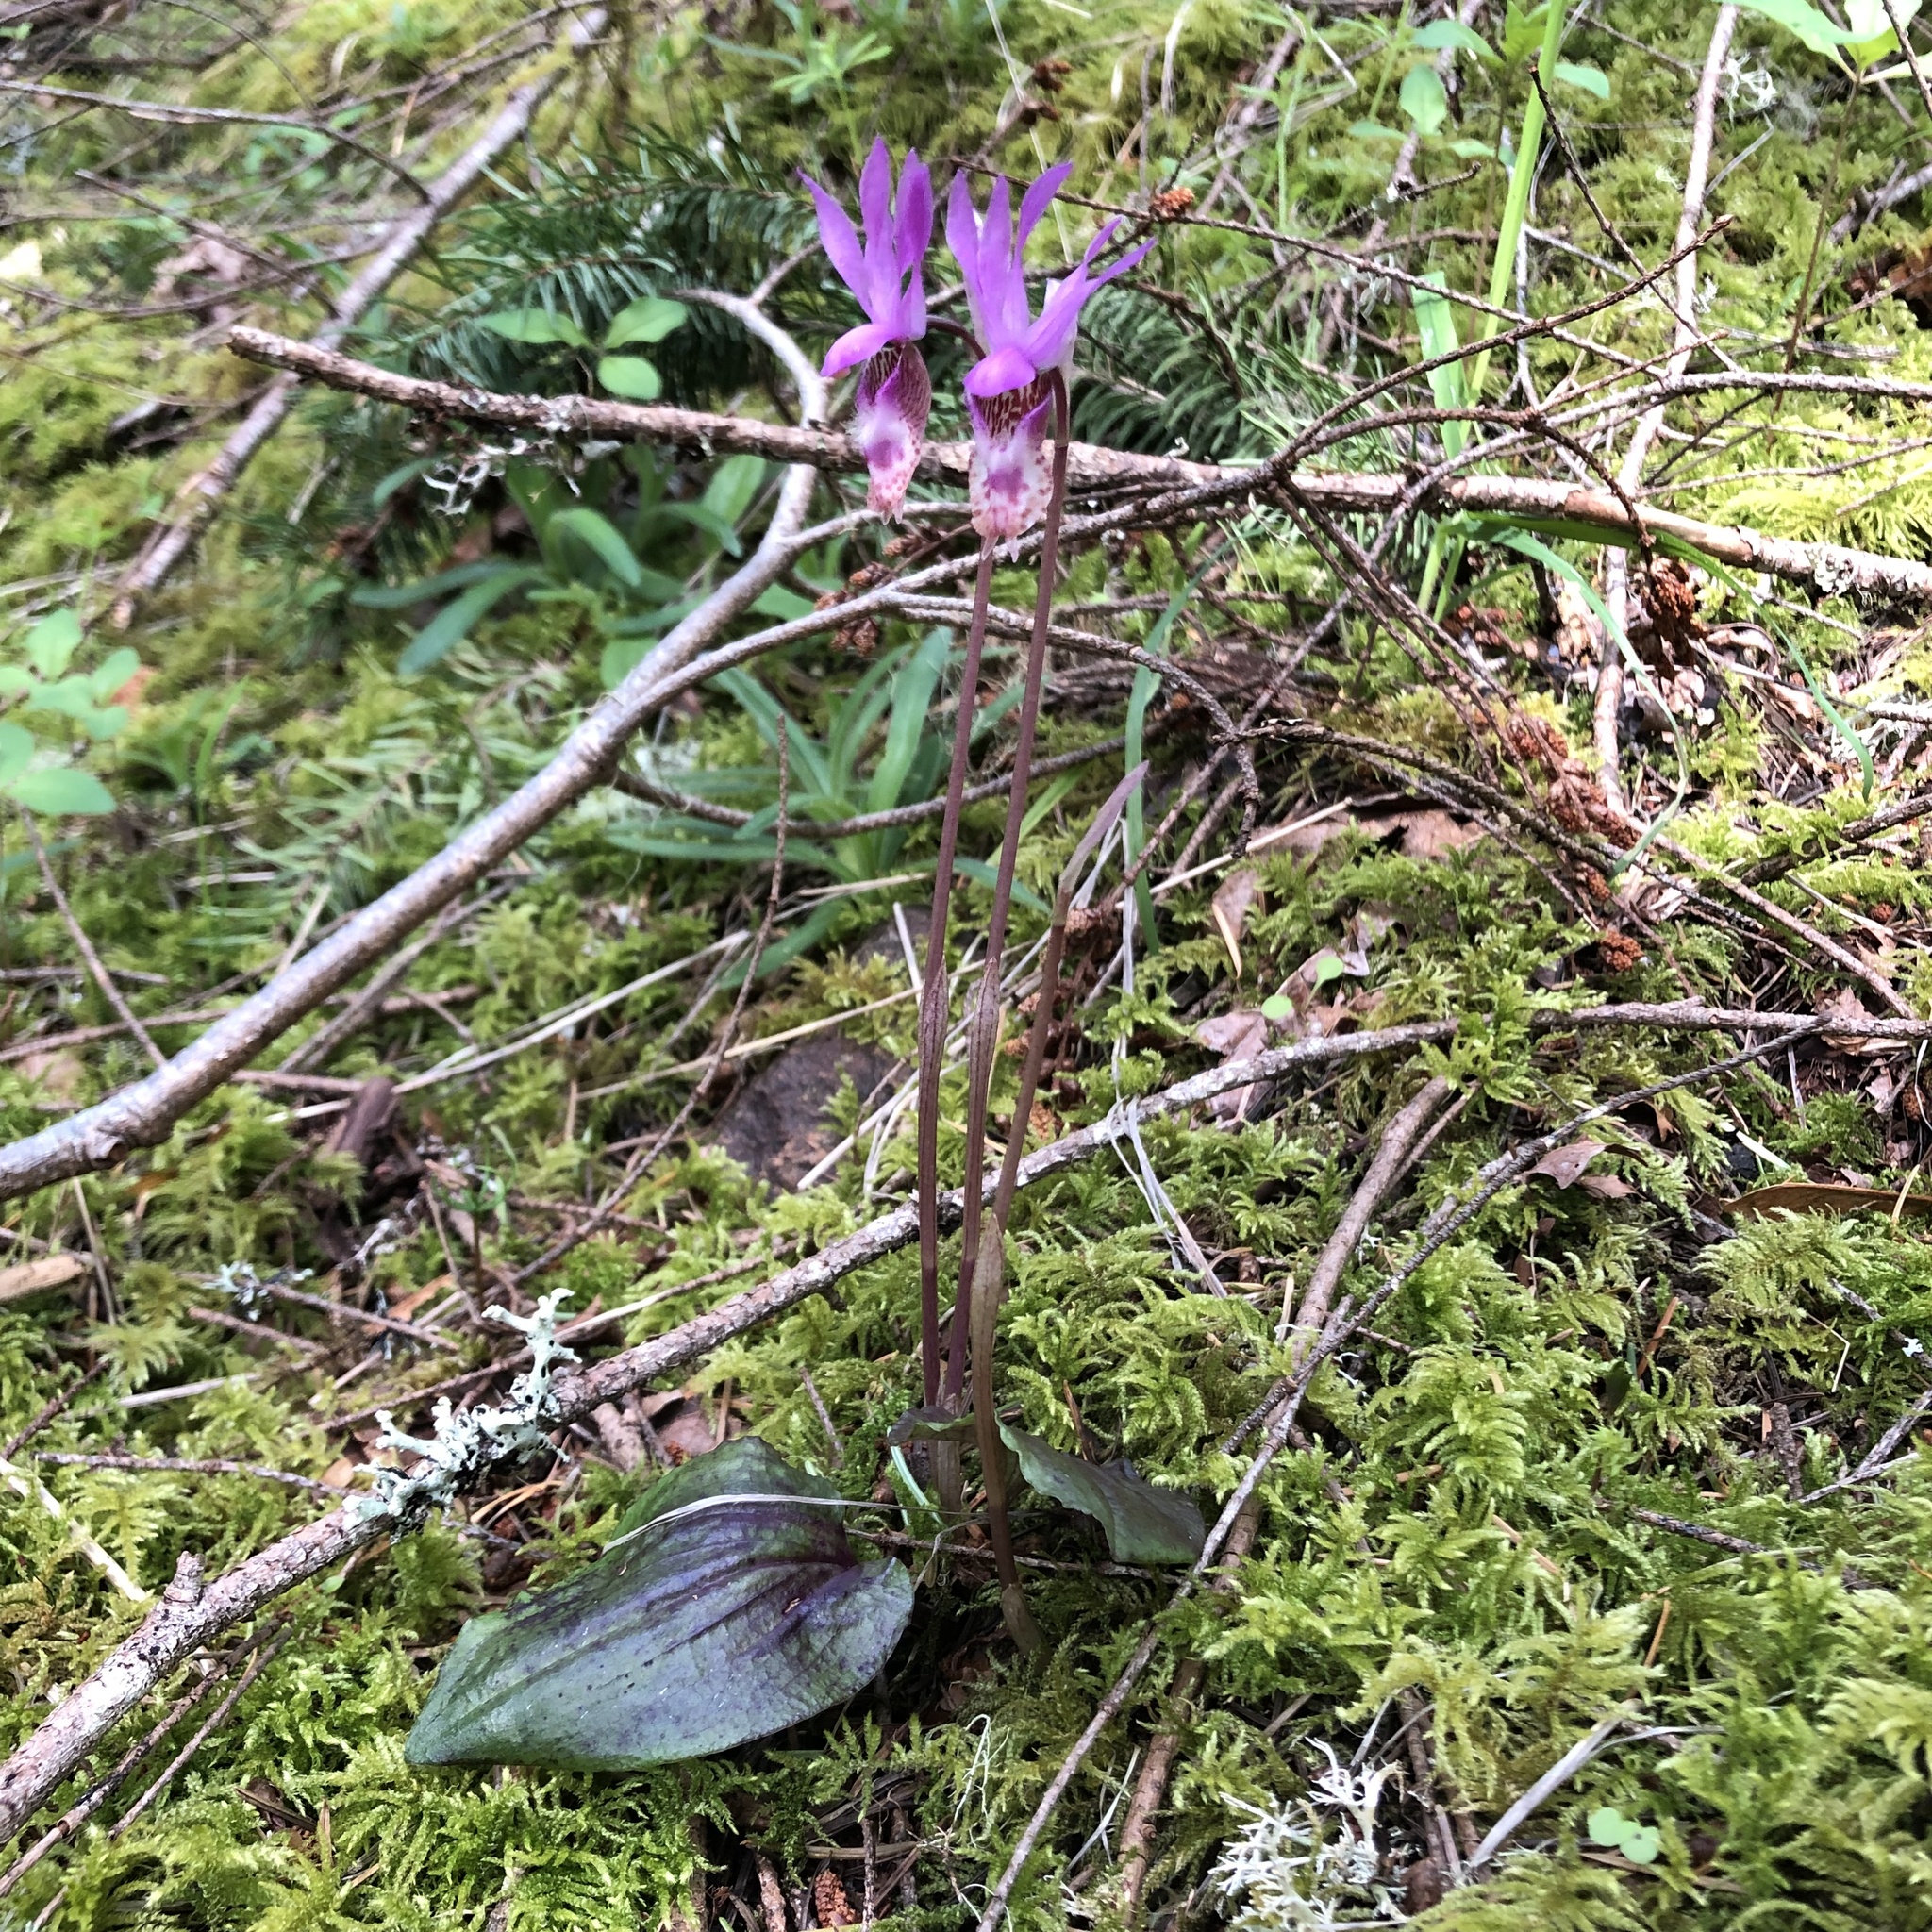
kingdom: Plantae
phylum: Tracheophyta
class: Liliopsida
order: Asparagales
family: Orchidaceae
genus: Calypso
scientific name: Calypso bulbosa
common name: Calypso
